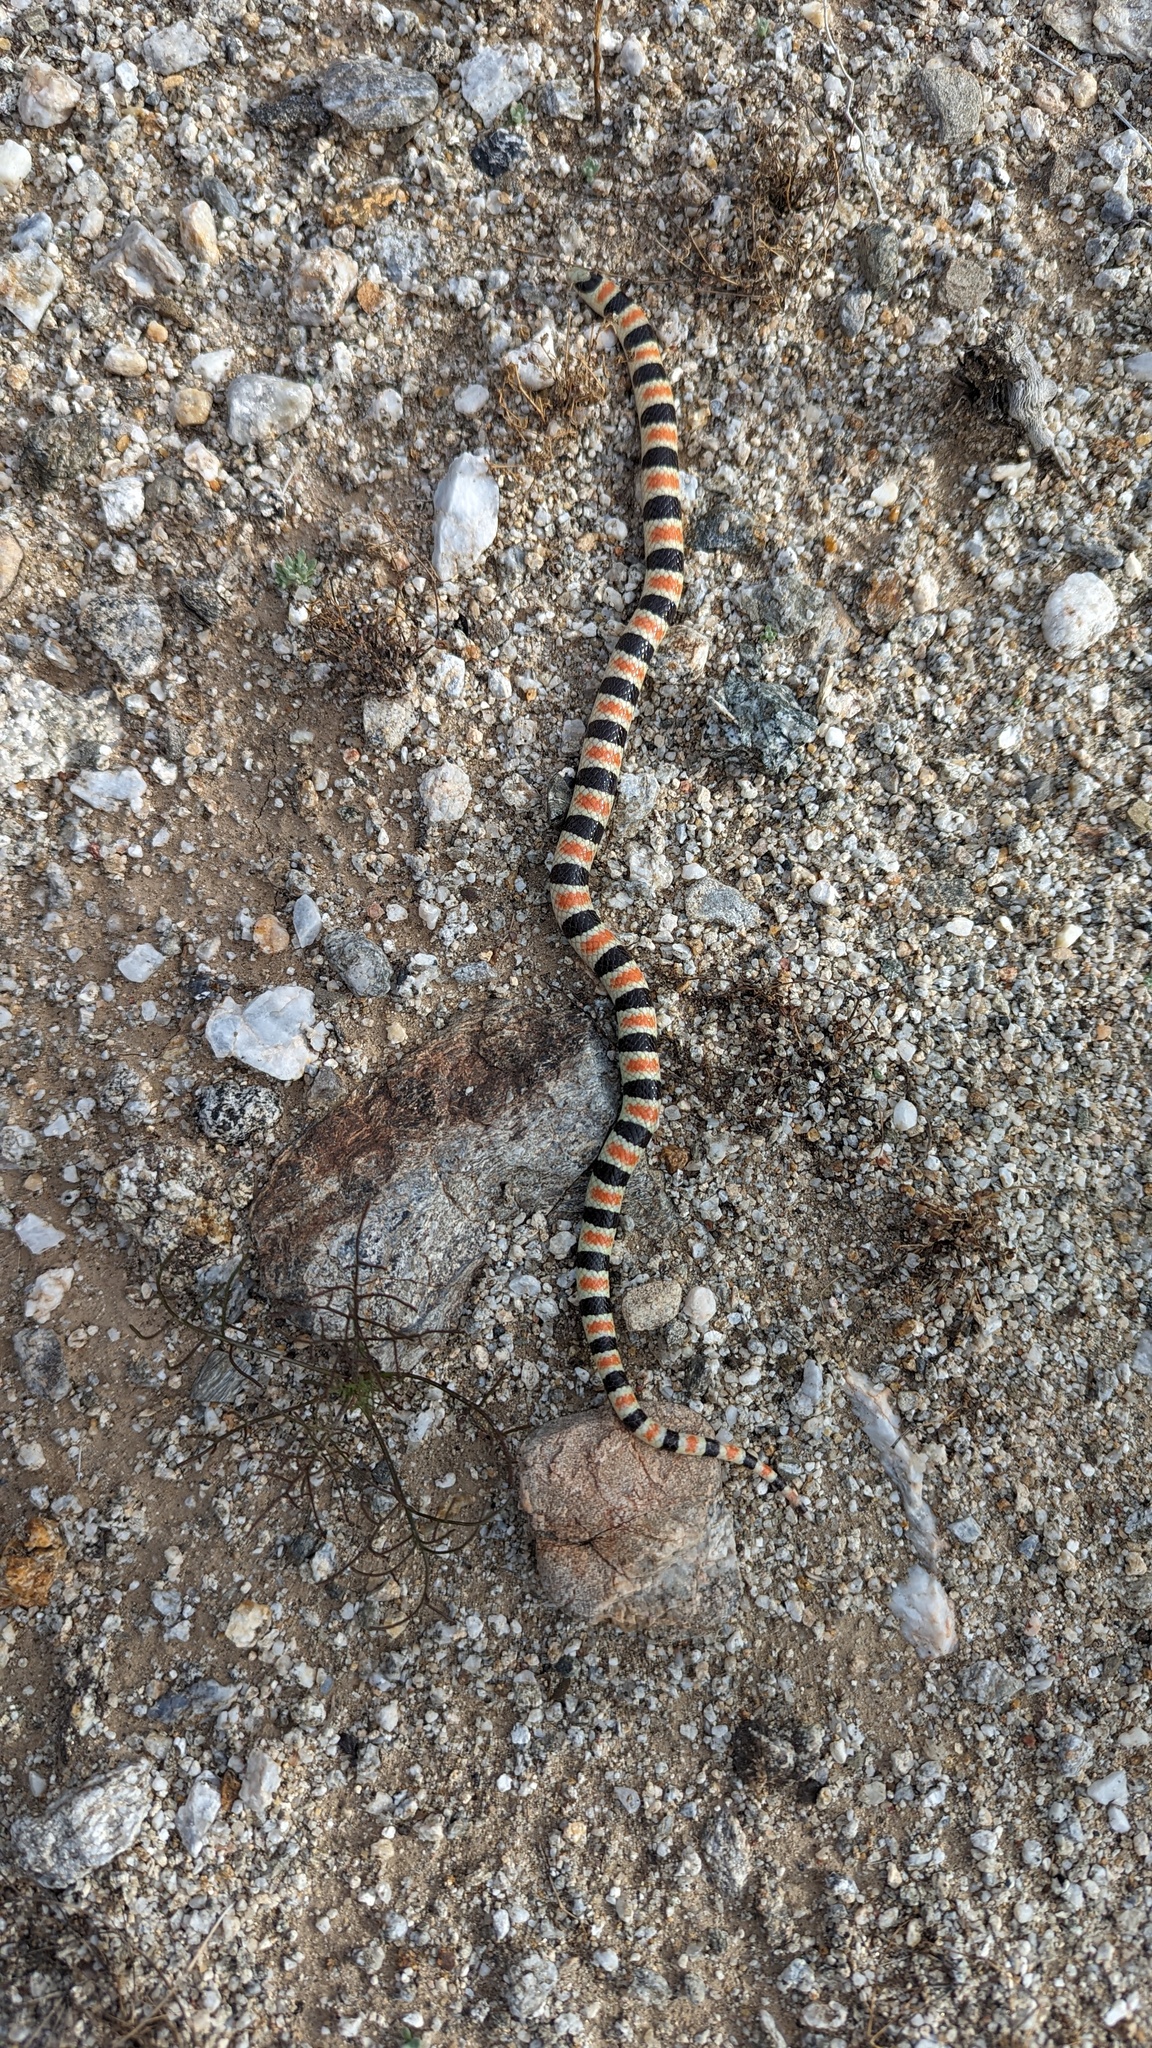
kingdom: Animalia
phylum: Chordata
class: Squamata
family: Colubridae
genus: Sonora
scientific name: Sonora annulata
